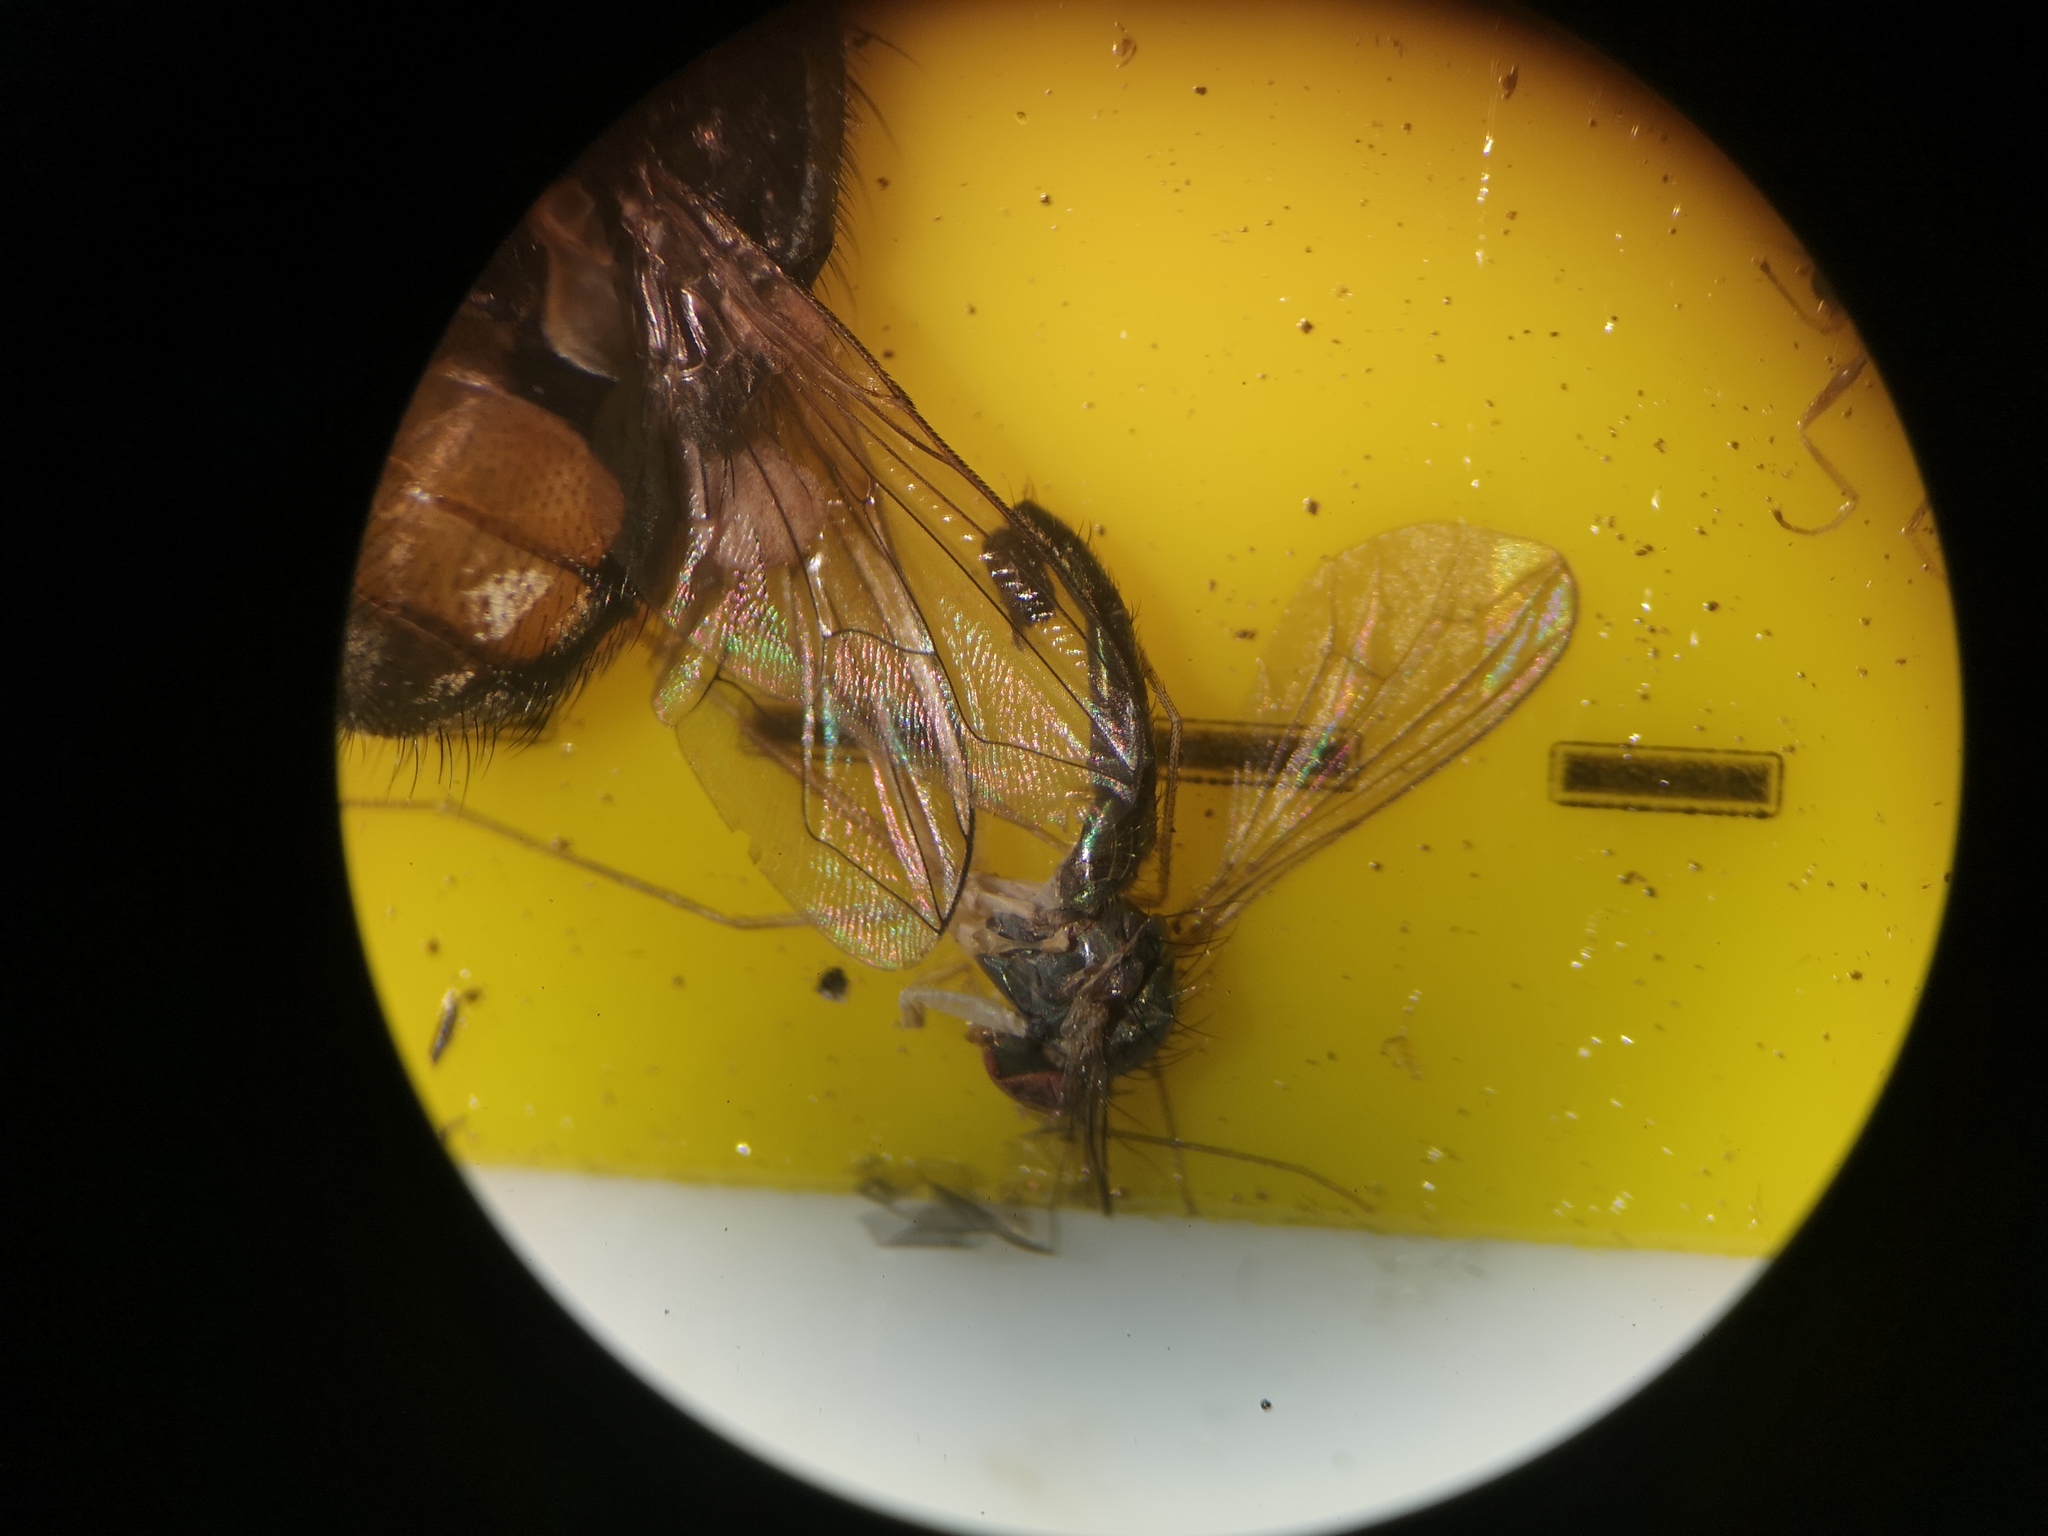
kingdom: Animalia
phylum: Arthropoda
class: Insecta
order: Diptera
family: Dolichopodidae
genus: Sciapus
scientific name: Sciapus platypterus
